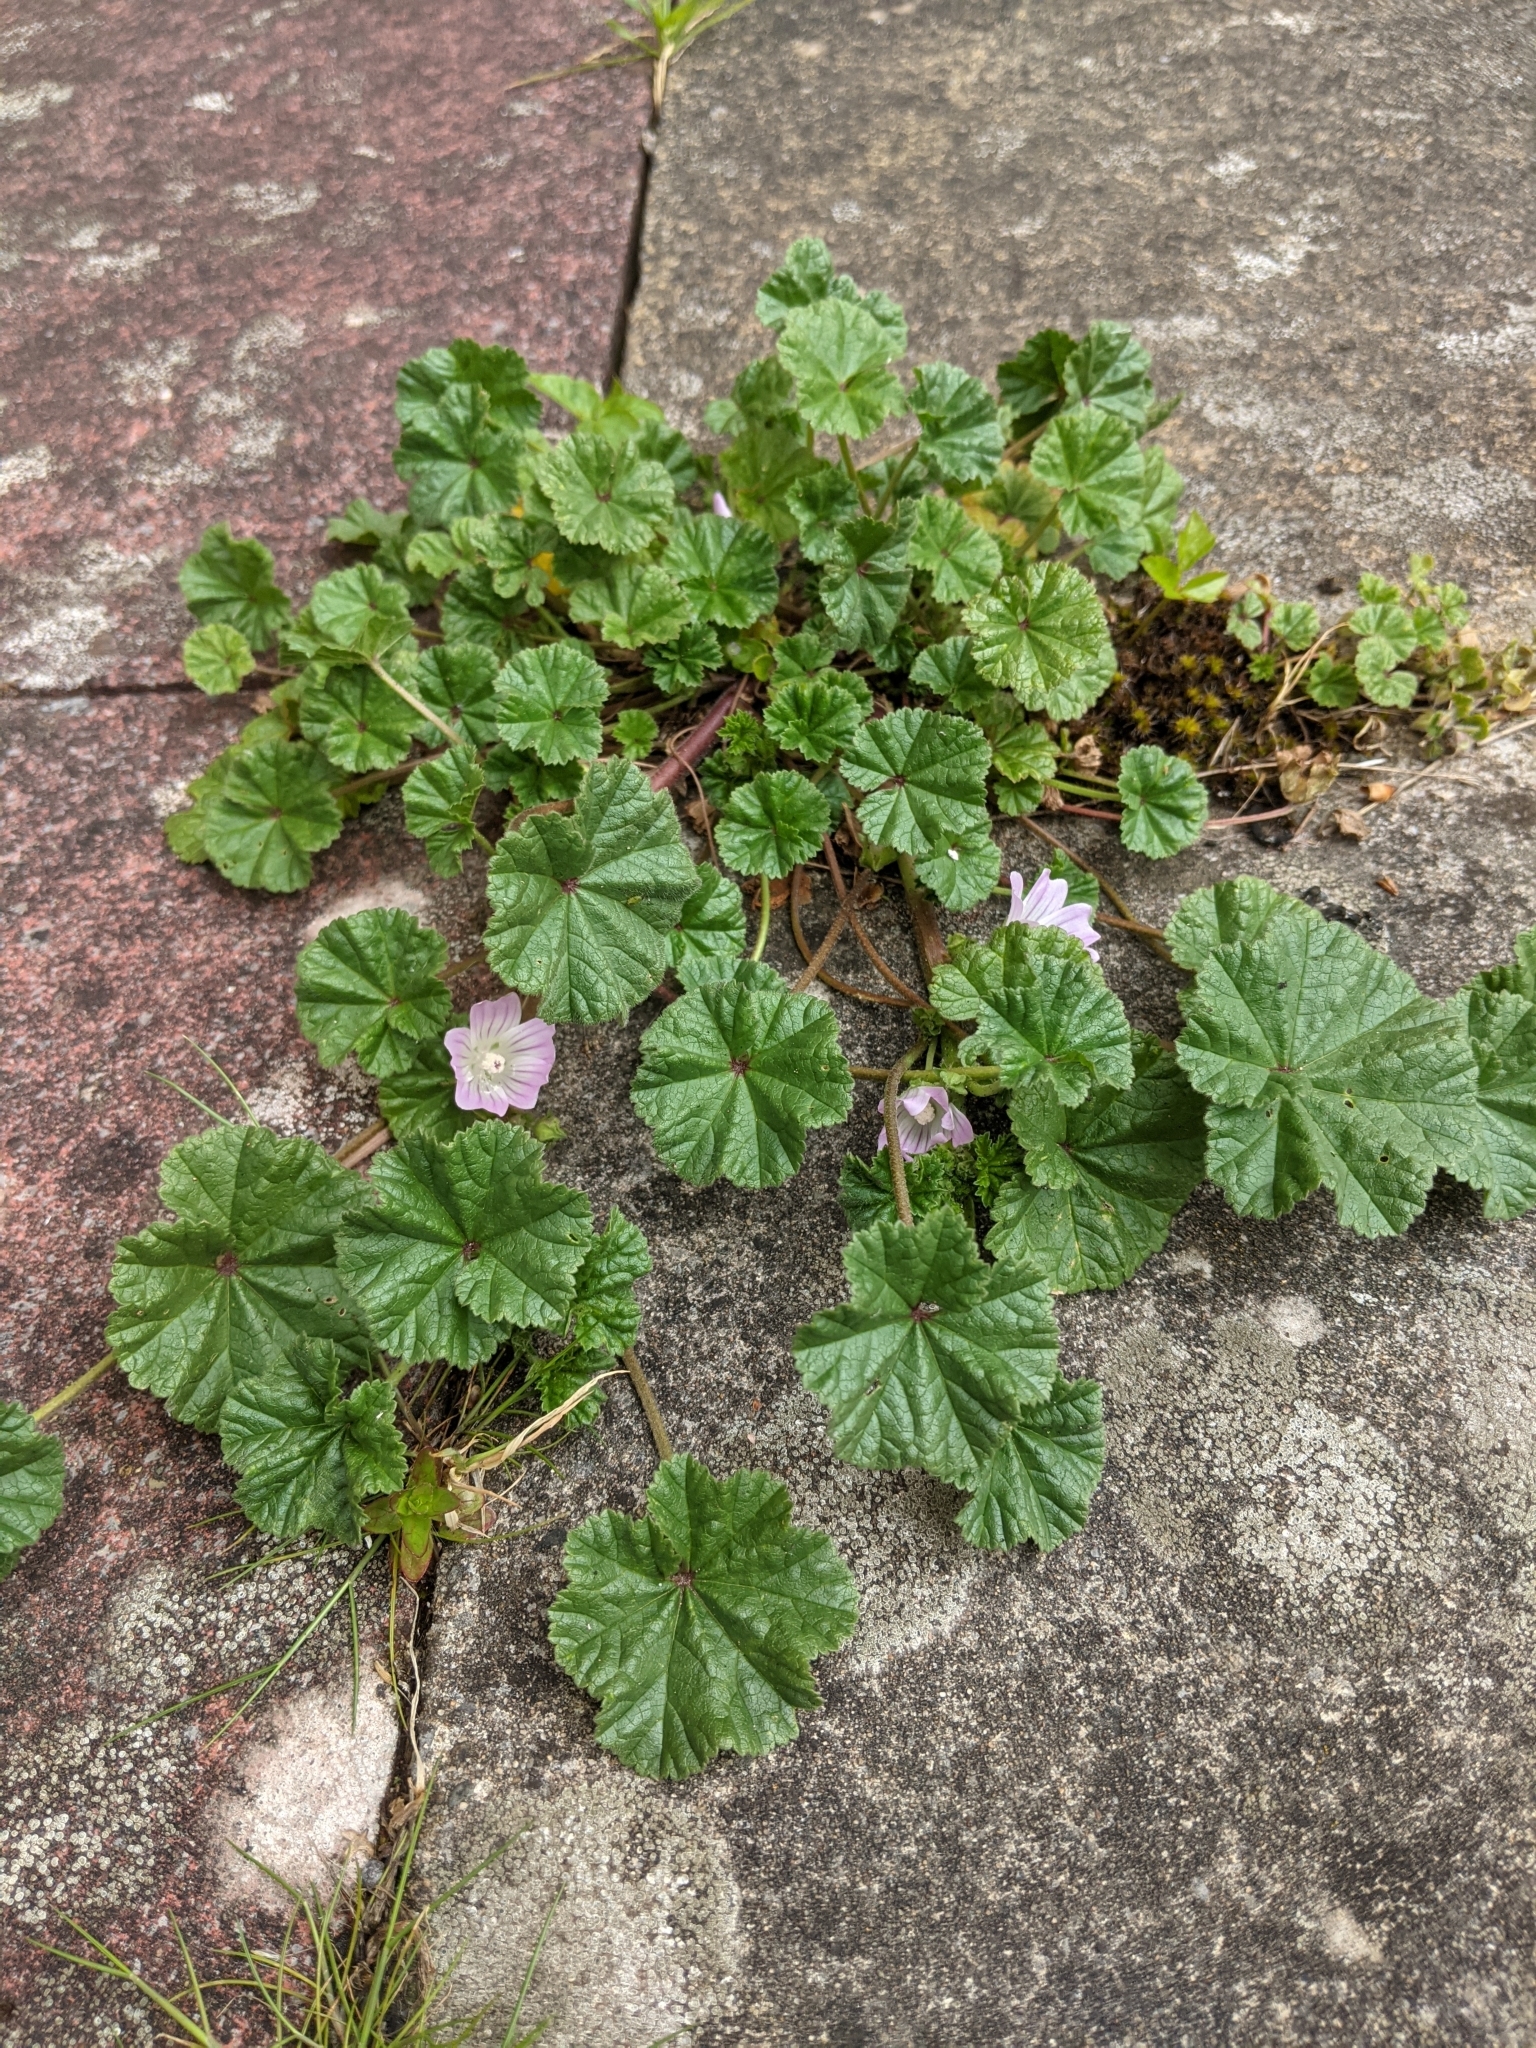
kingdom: Plantae
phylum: Tracheophyta
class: Magnoliopsida
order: Malvales
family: Malvaceae
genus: Malva
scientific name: Malva neglecta
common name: Common mallow
